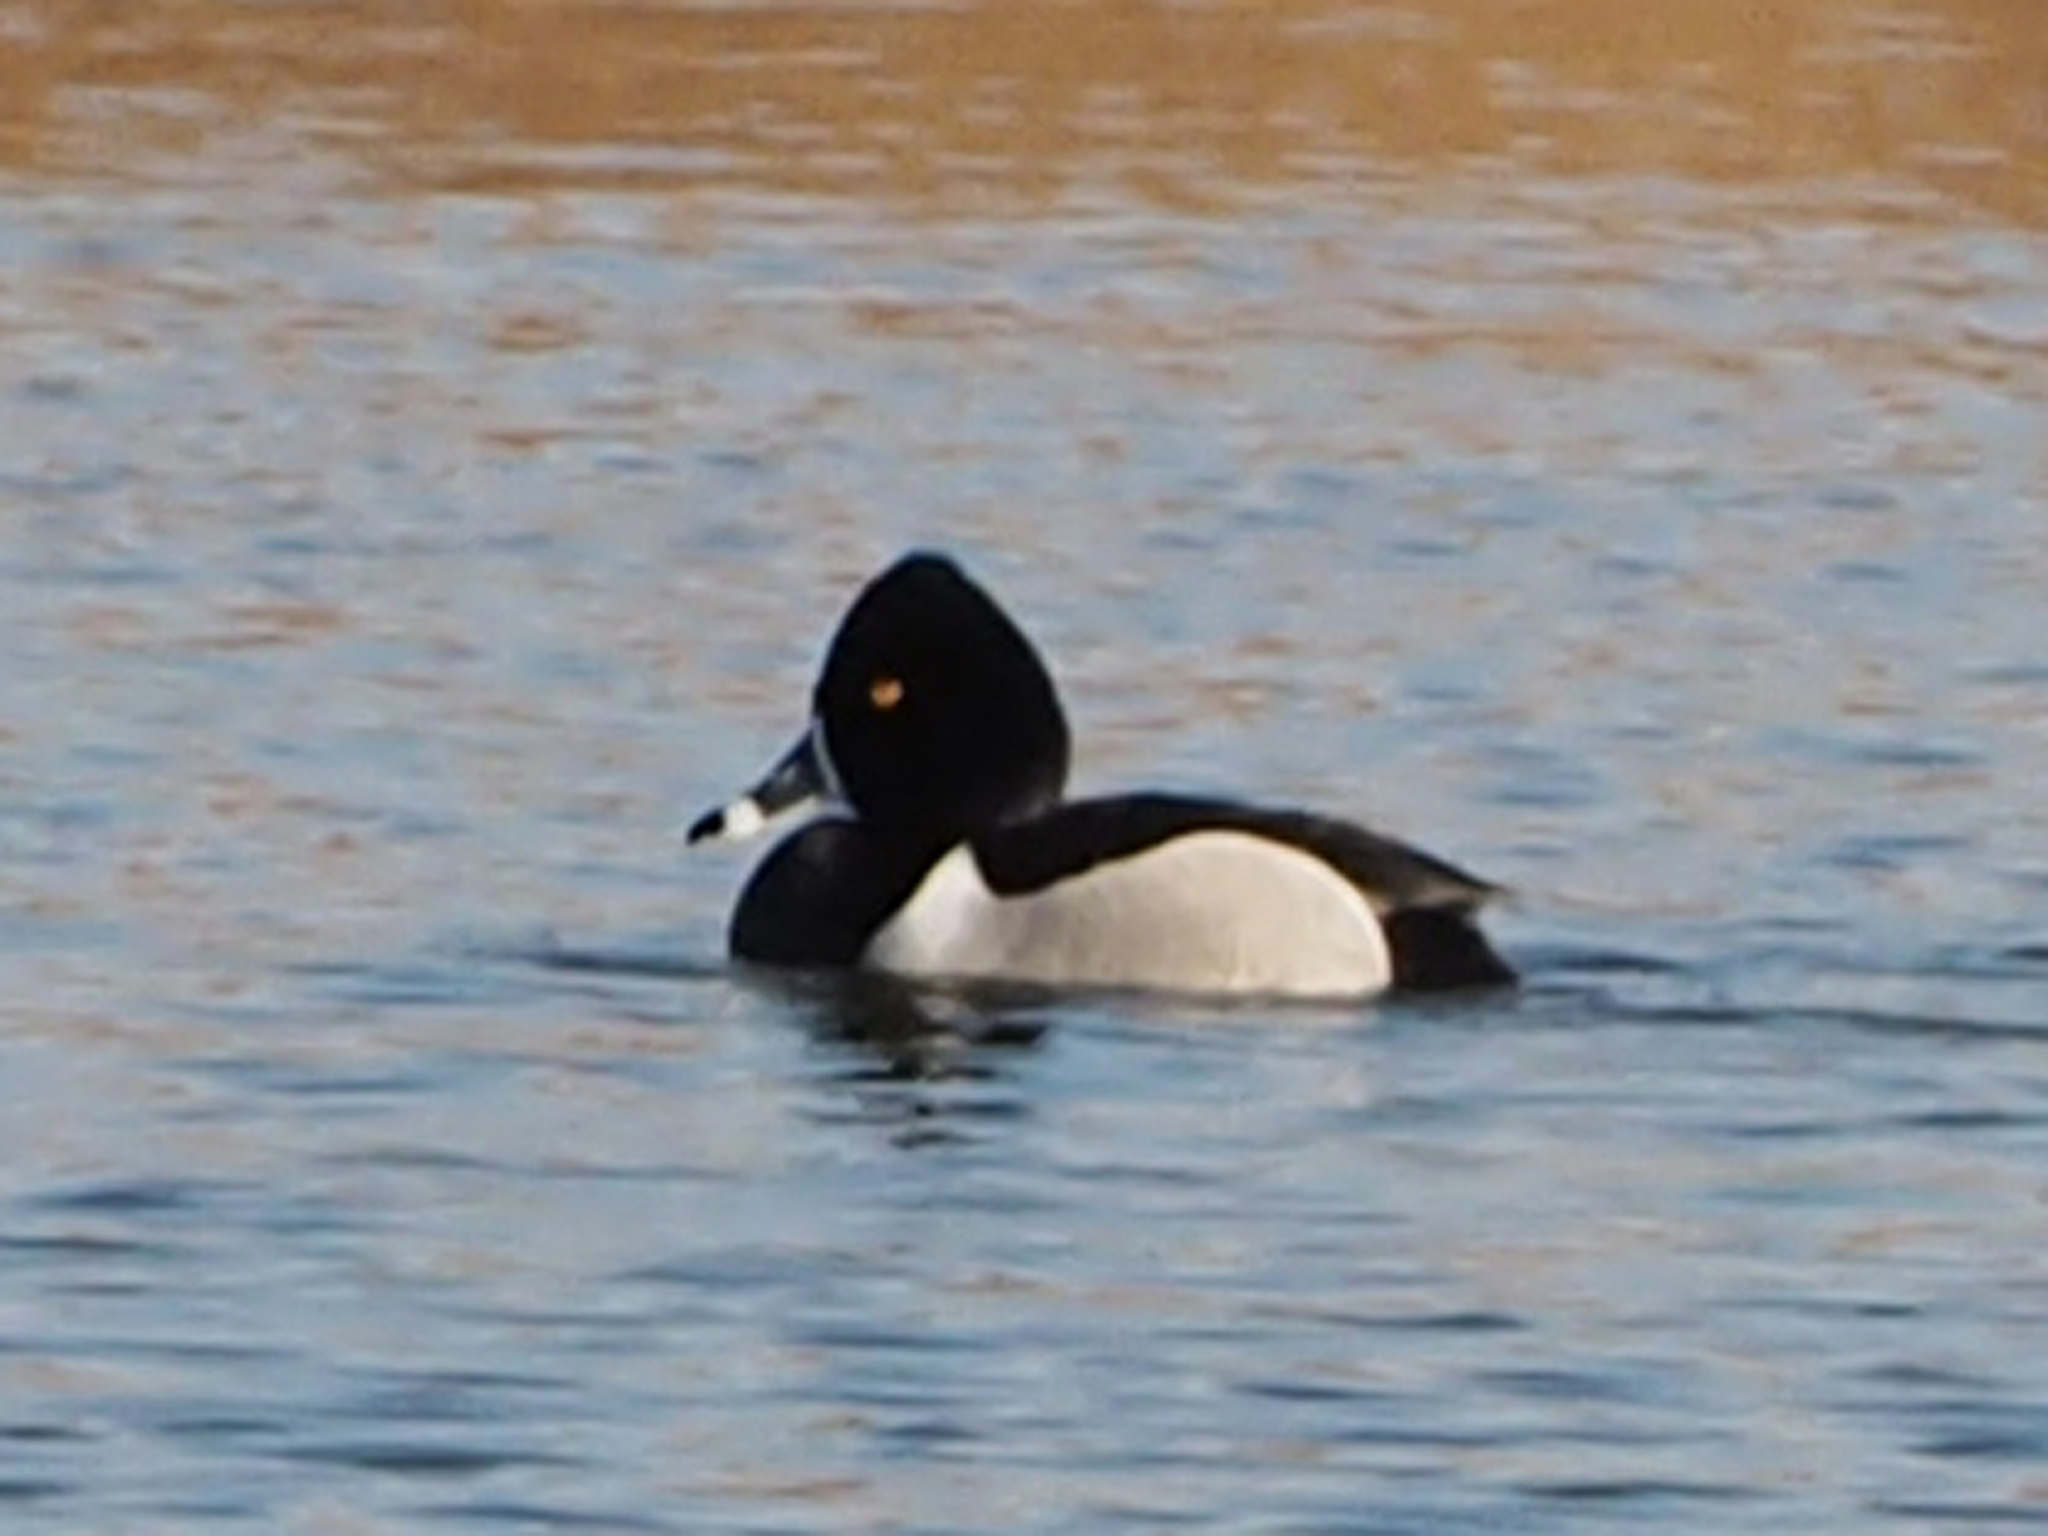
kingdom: Animalia
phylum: Chordata
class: Aves
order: Anseriformes
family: Anatidae
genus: Aythya
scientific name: Aythya collaris
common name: Ring-necked duck
